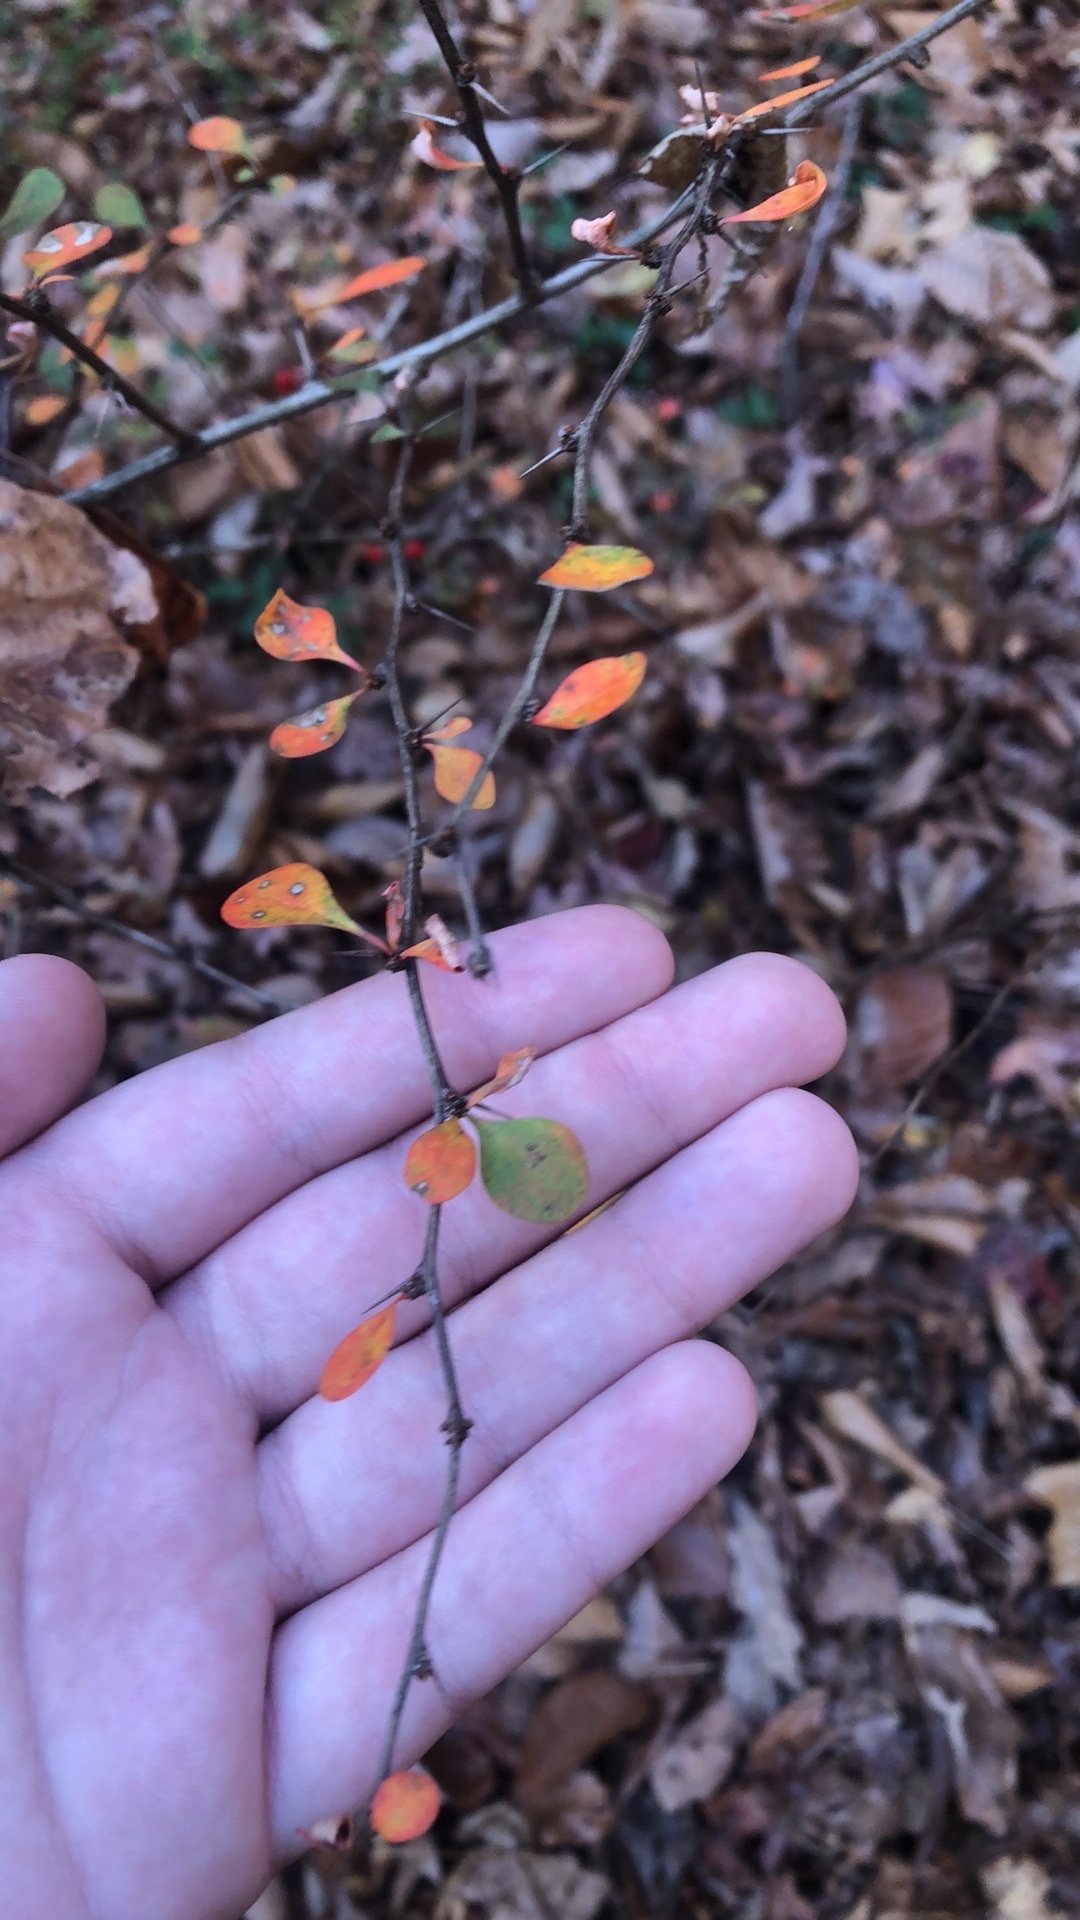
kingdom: Plantae
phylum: Tracheophyta
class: Magnoliopsida
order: Ranunculales
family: Berberidaceae
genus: Berberis
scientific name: Berberis thunbergii
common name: Japanese barberry
